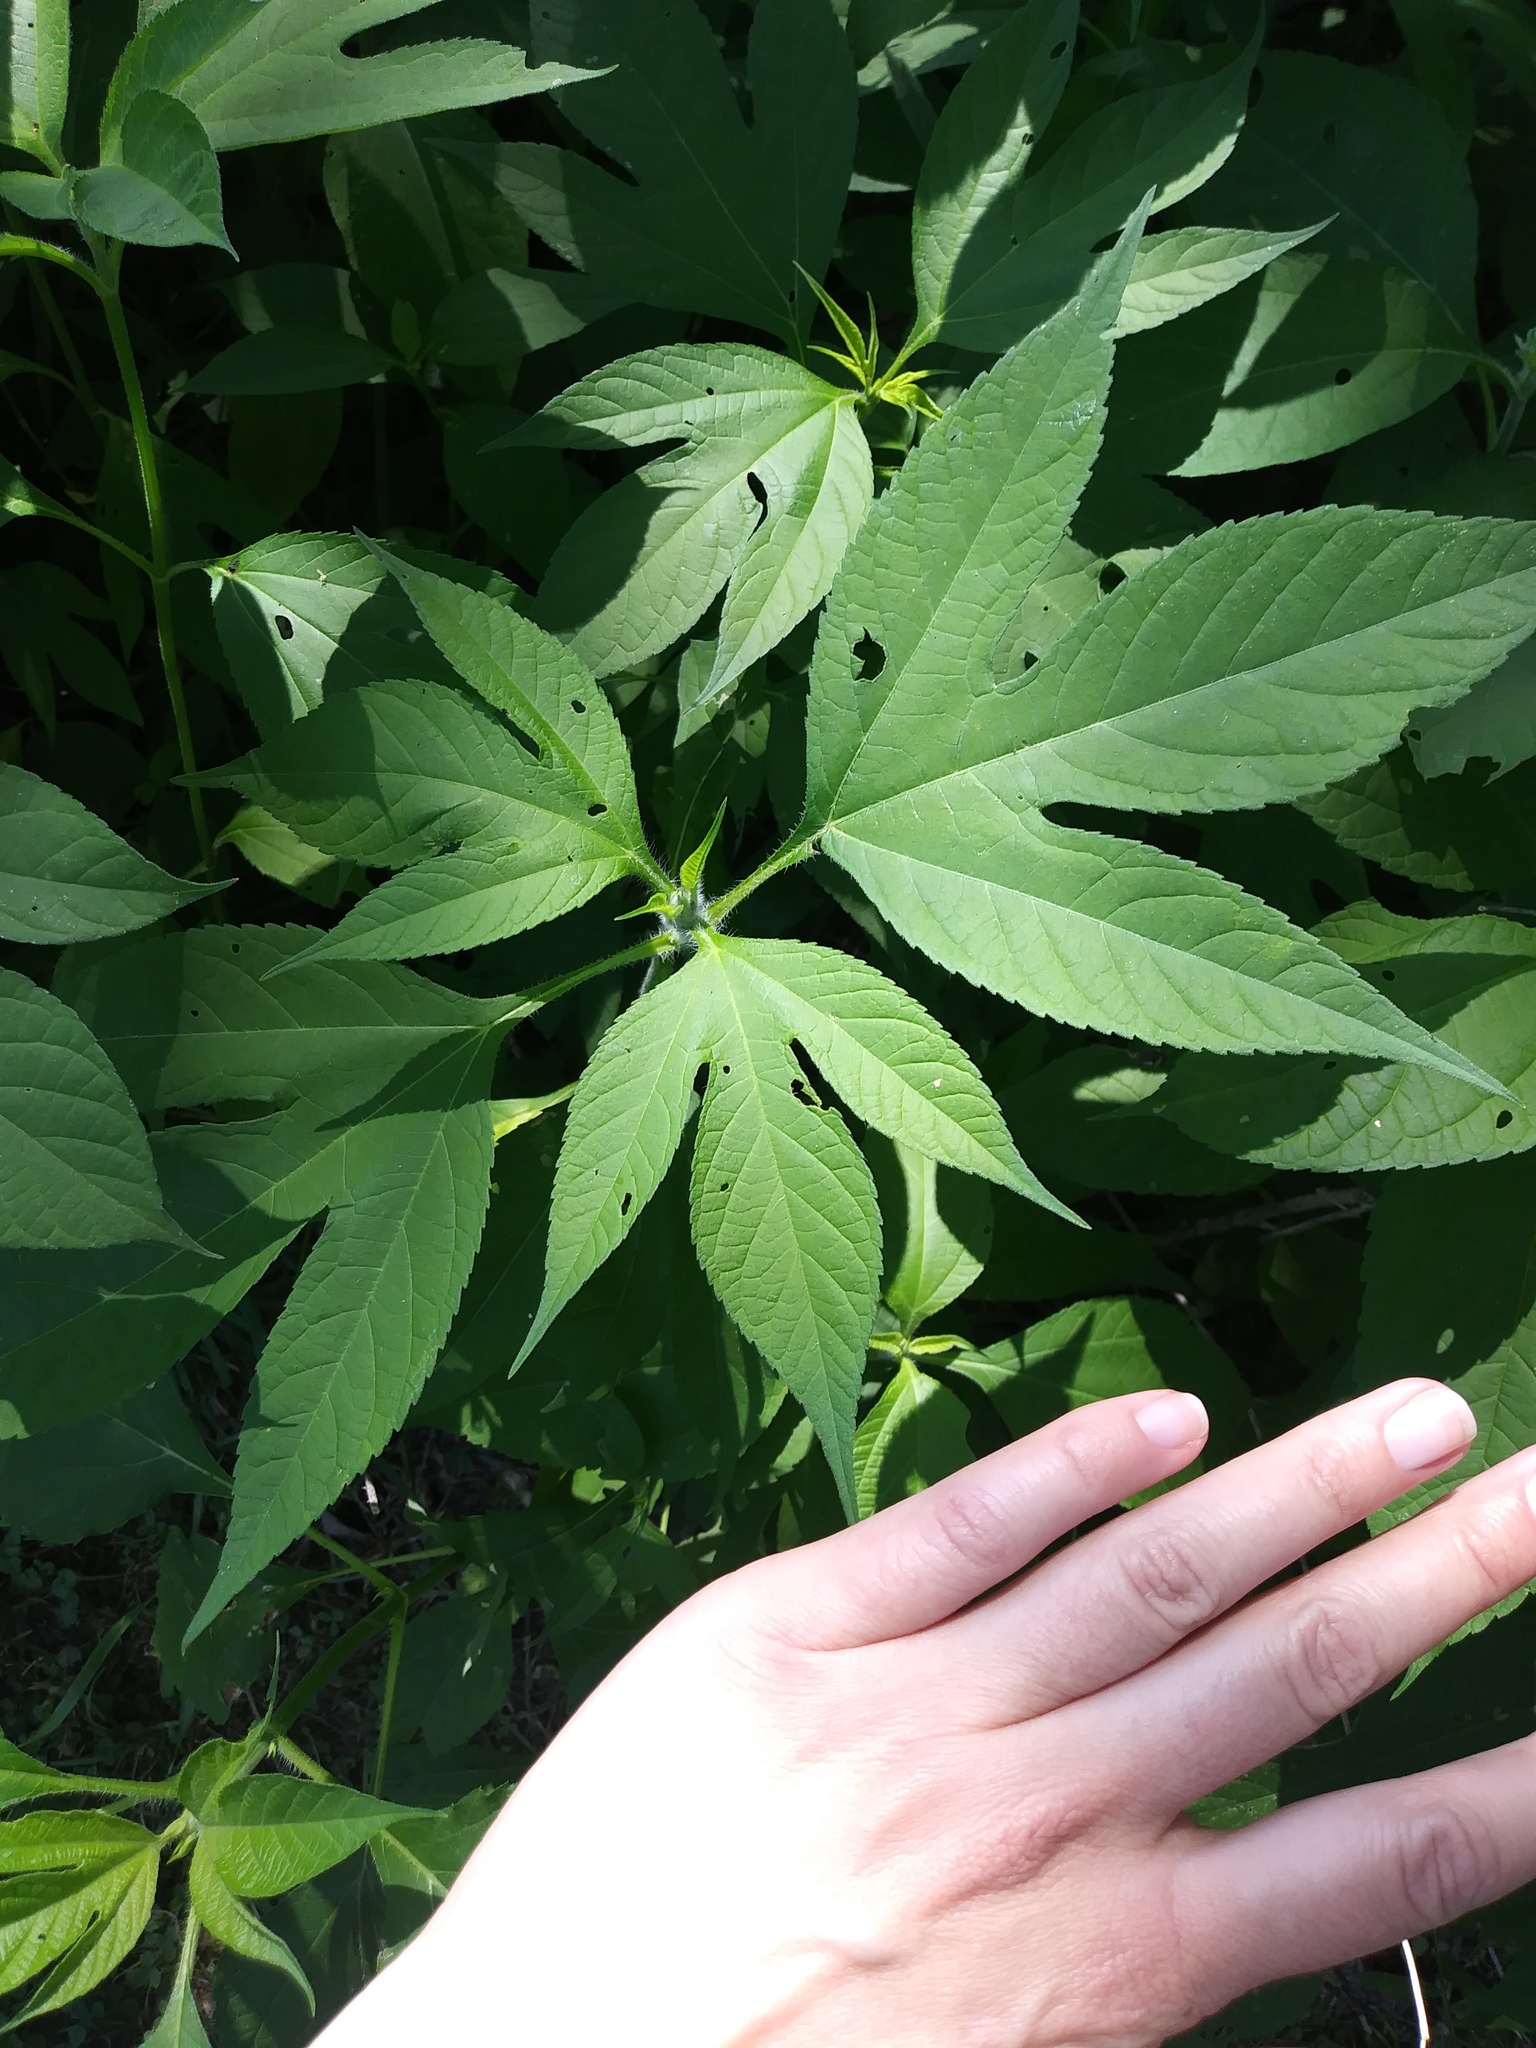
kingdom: Plantae
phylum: Tracheophyta
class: Magnoliopsida
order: Asterales
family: Asteraceae
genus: Ambrosia
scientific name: Ambrosia trifida
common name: Giant ragweed
